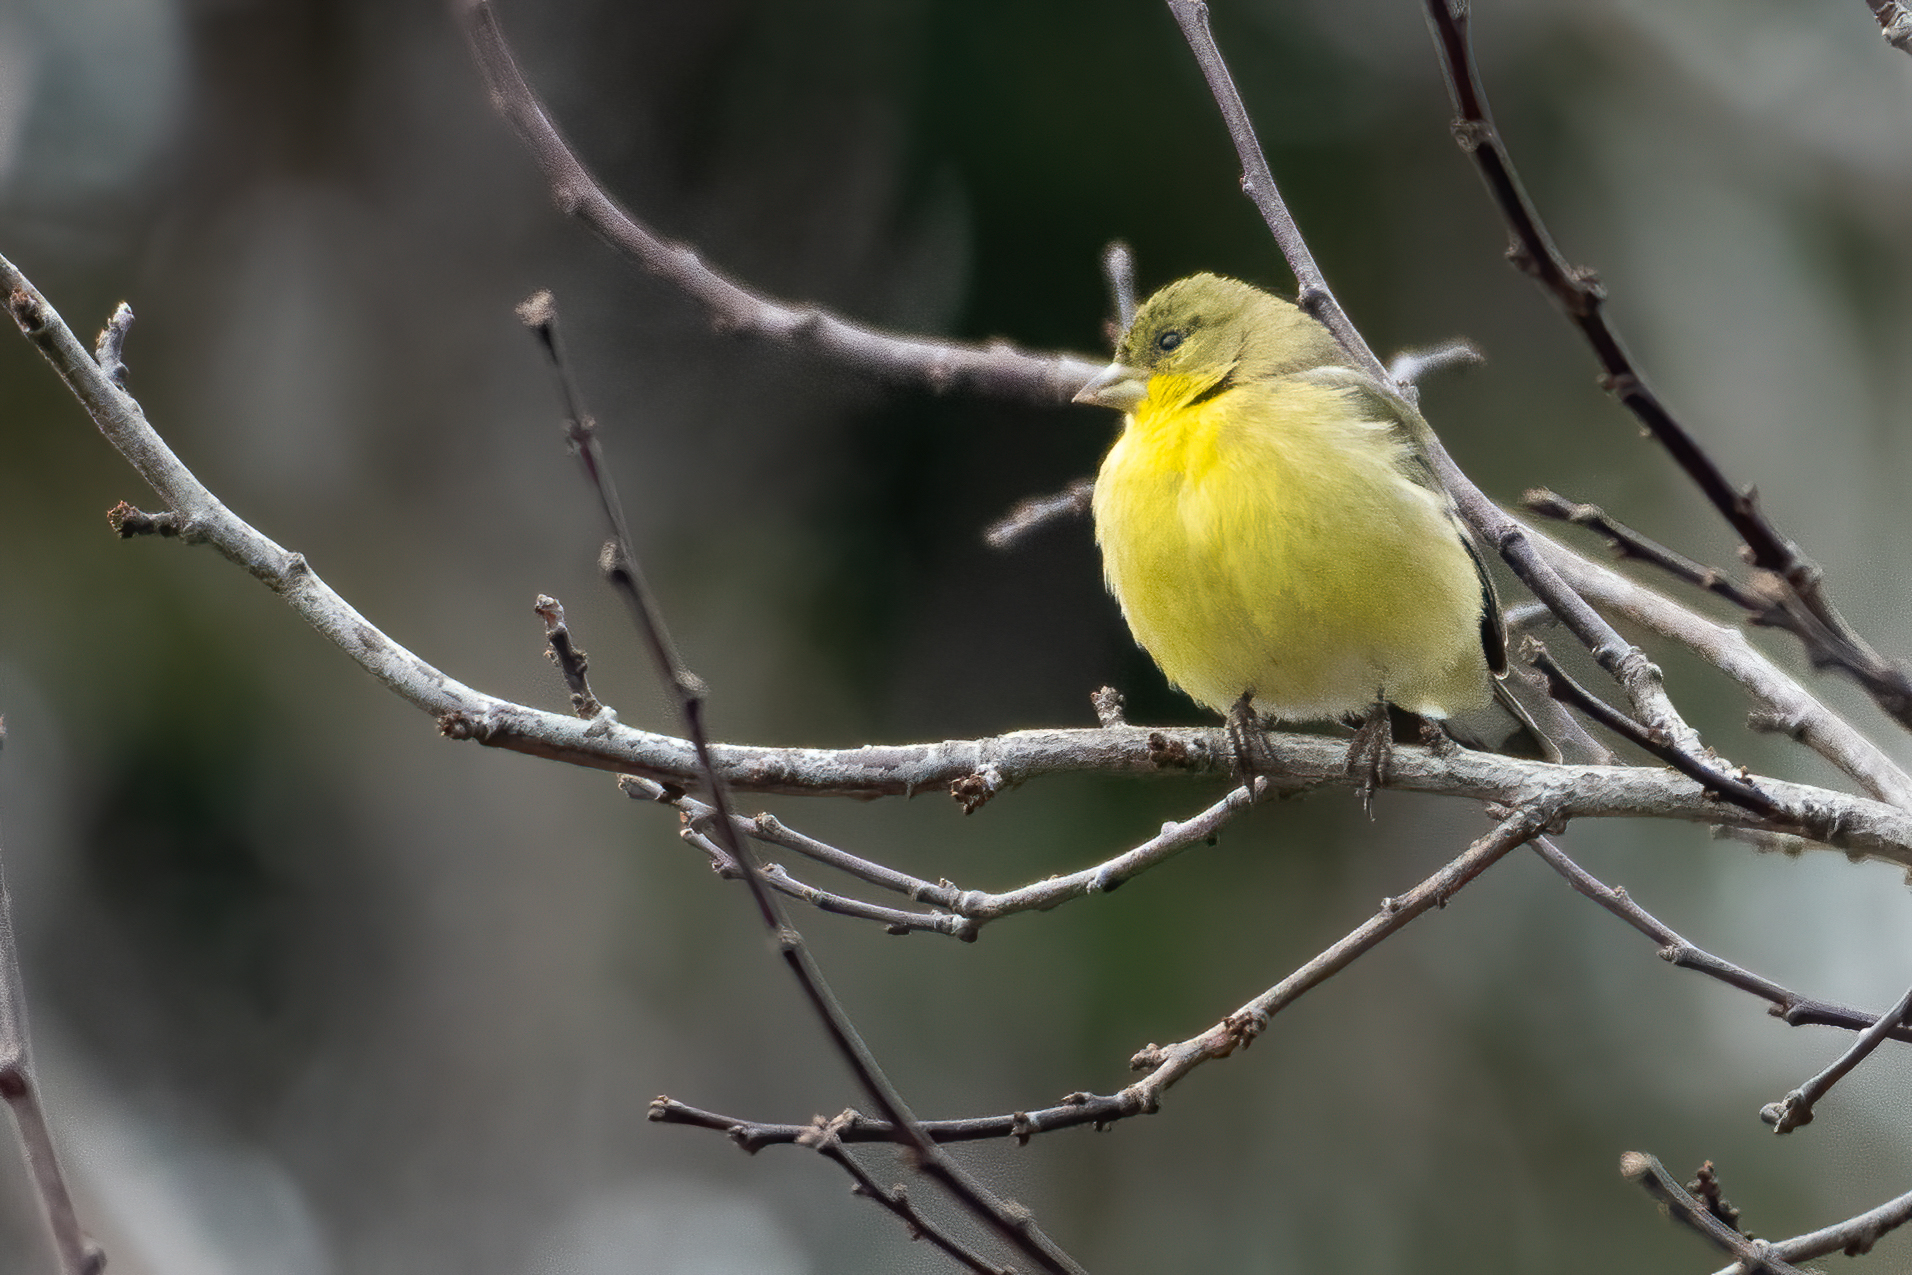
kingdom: Animalia
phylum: Chordata
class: Aves
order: Passeriformes
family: Fringillidae
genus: Spinus
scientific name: Spinus psaltria
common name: Lesser goldfinch
